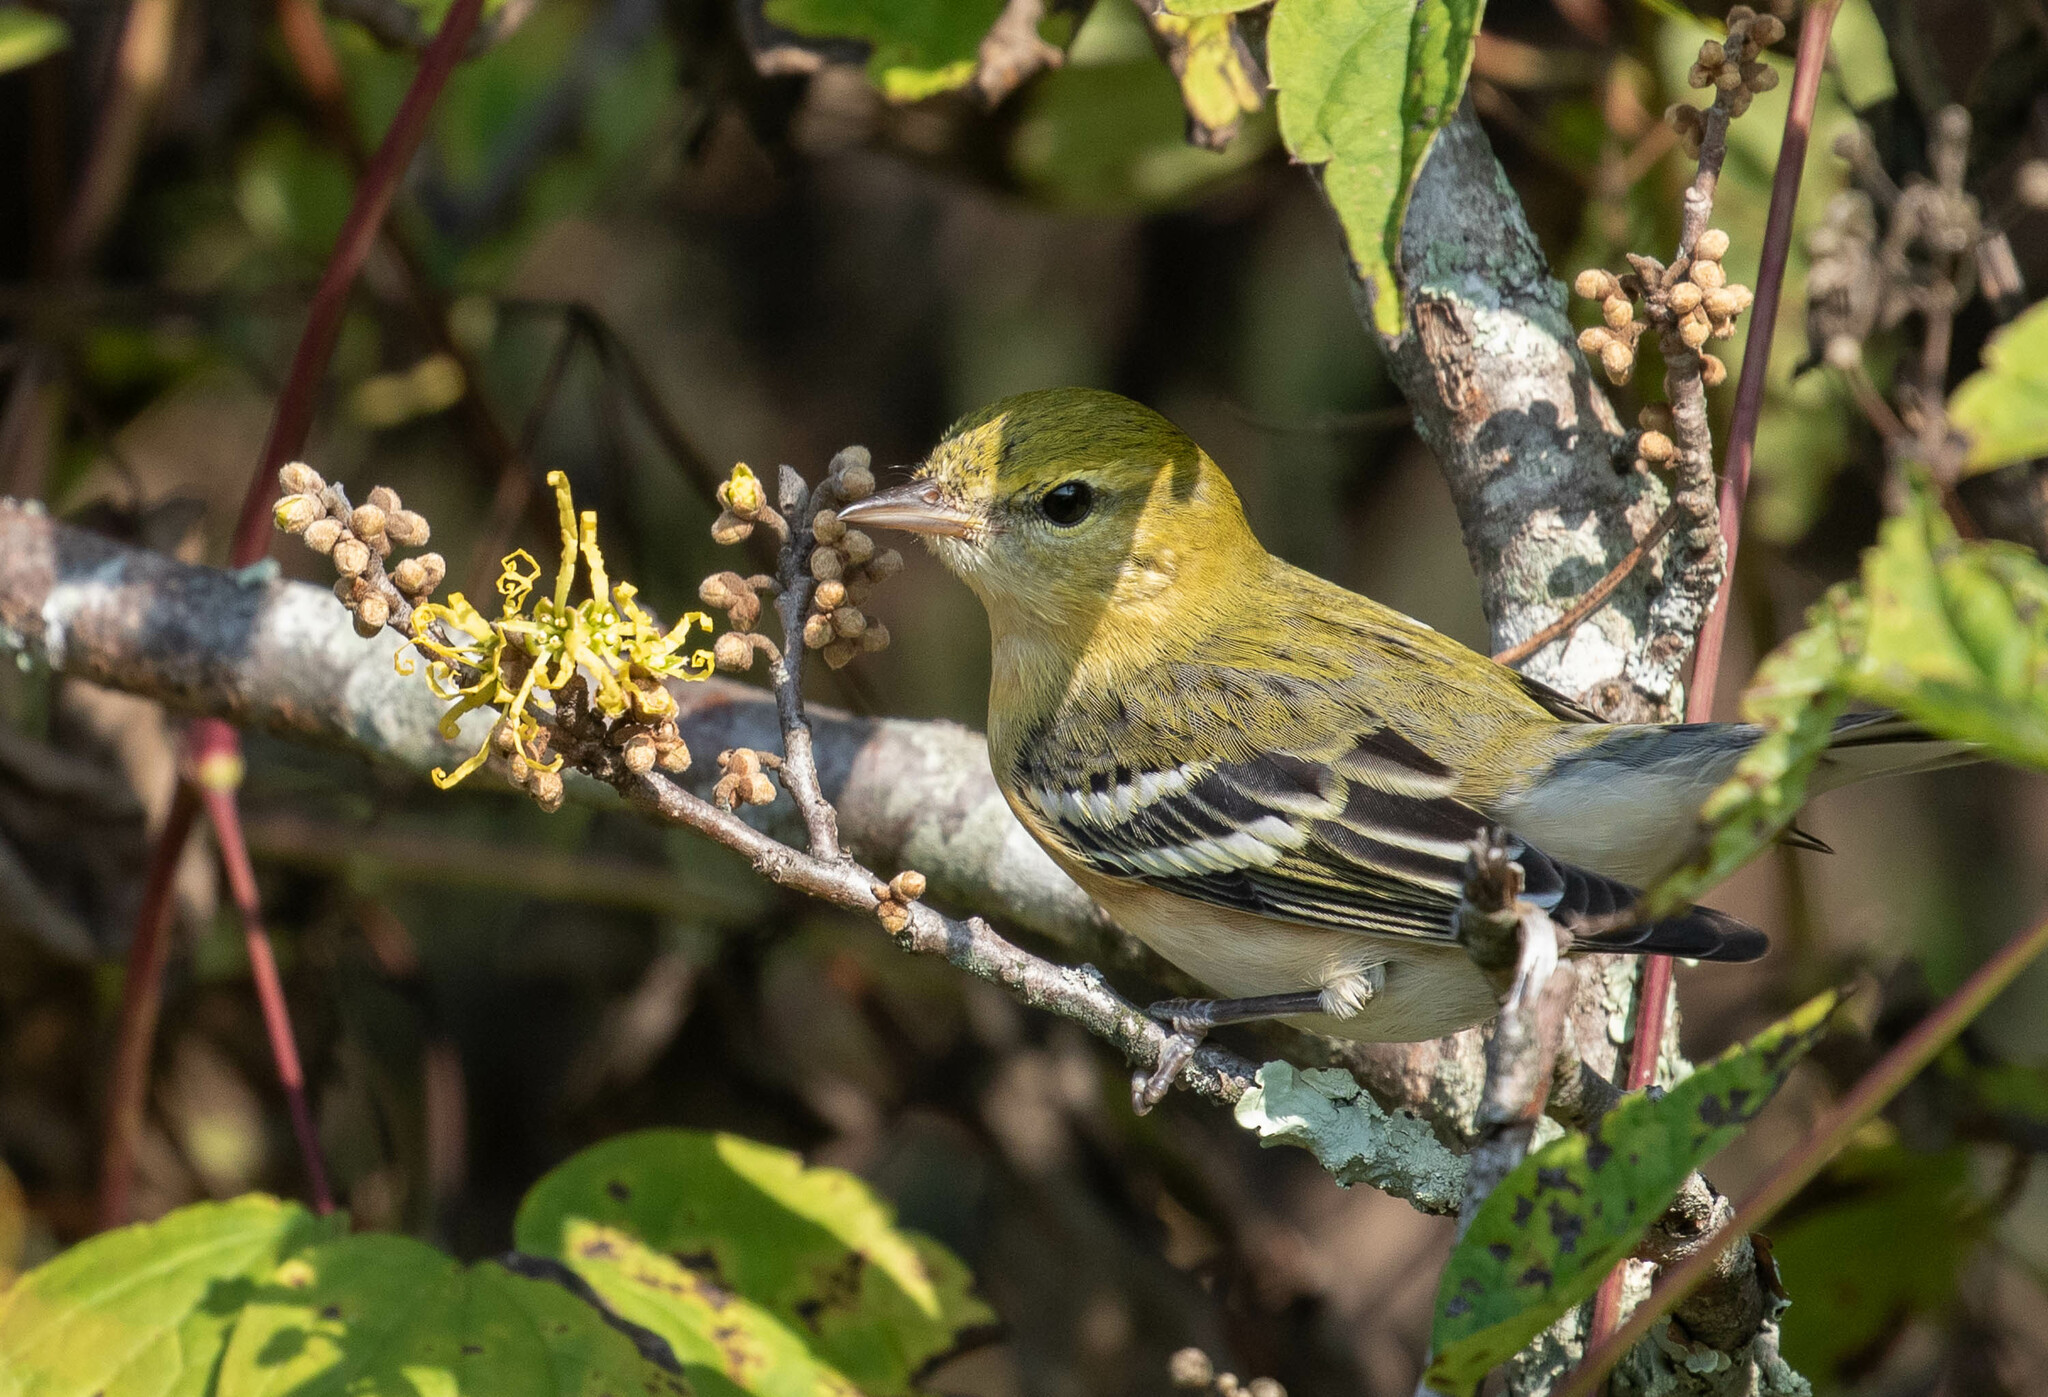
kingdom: Animalia
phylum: Chordata
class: Aves
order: Passeriformes
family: Parulidae
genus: Setophaga
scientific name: Setophaga castanea
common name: Bay-breasted warbler
